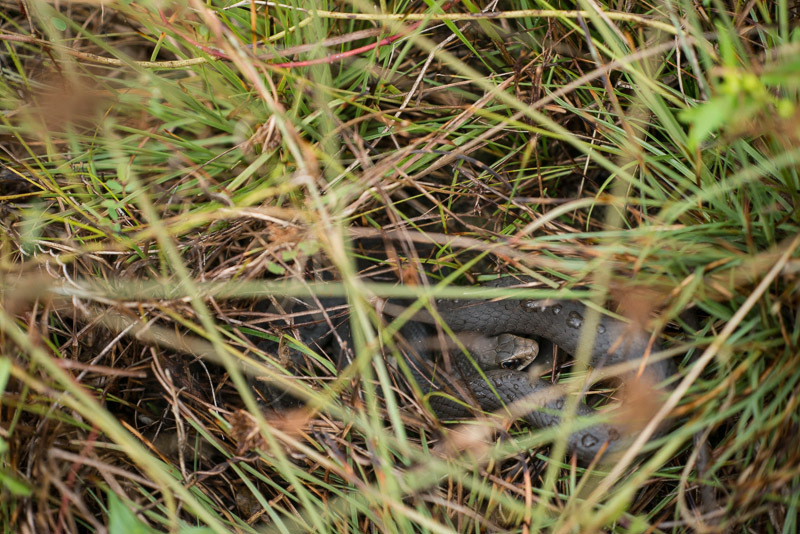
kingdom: Animalia
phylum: Chordata
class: Squamata
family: Colubridae
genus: Coluber
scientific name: Coluber constrictor
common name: Eastern racer
